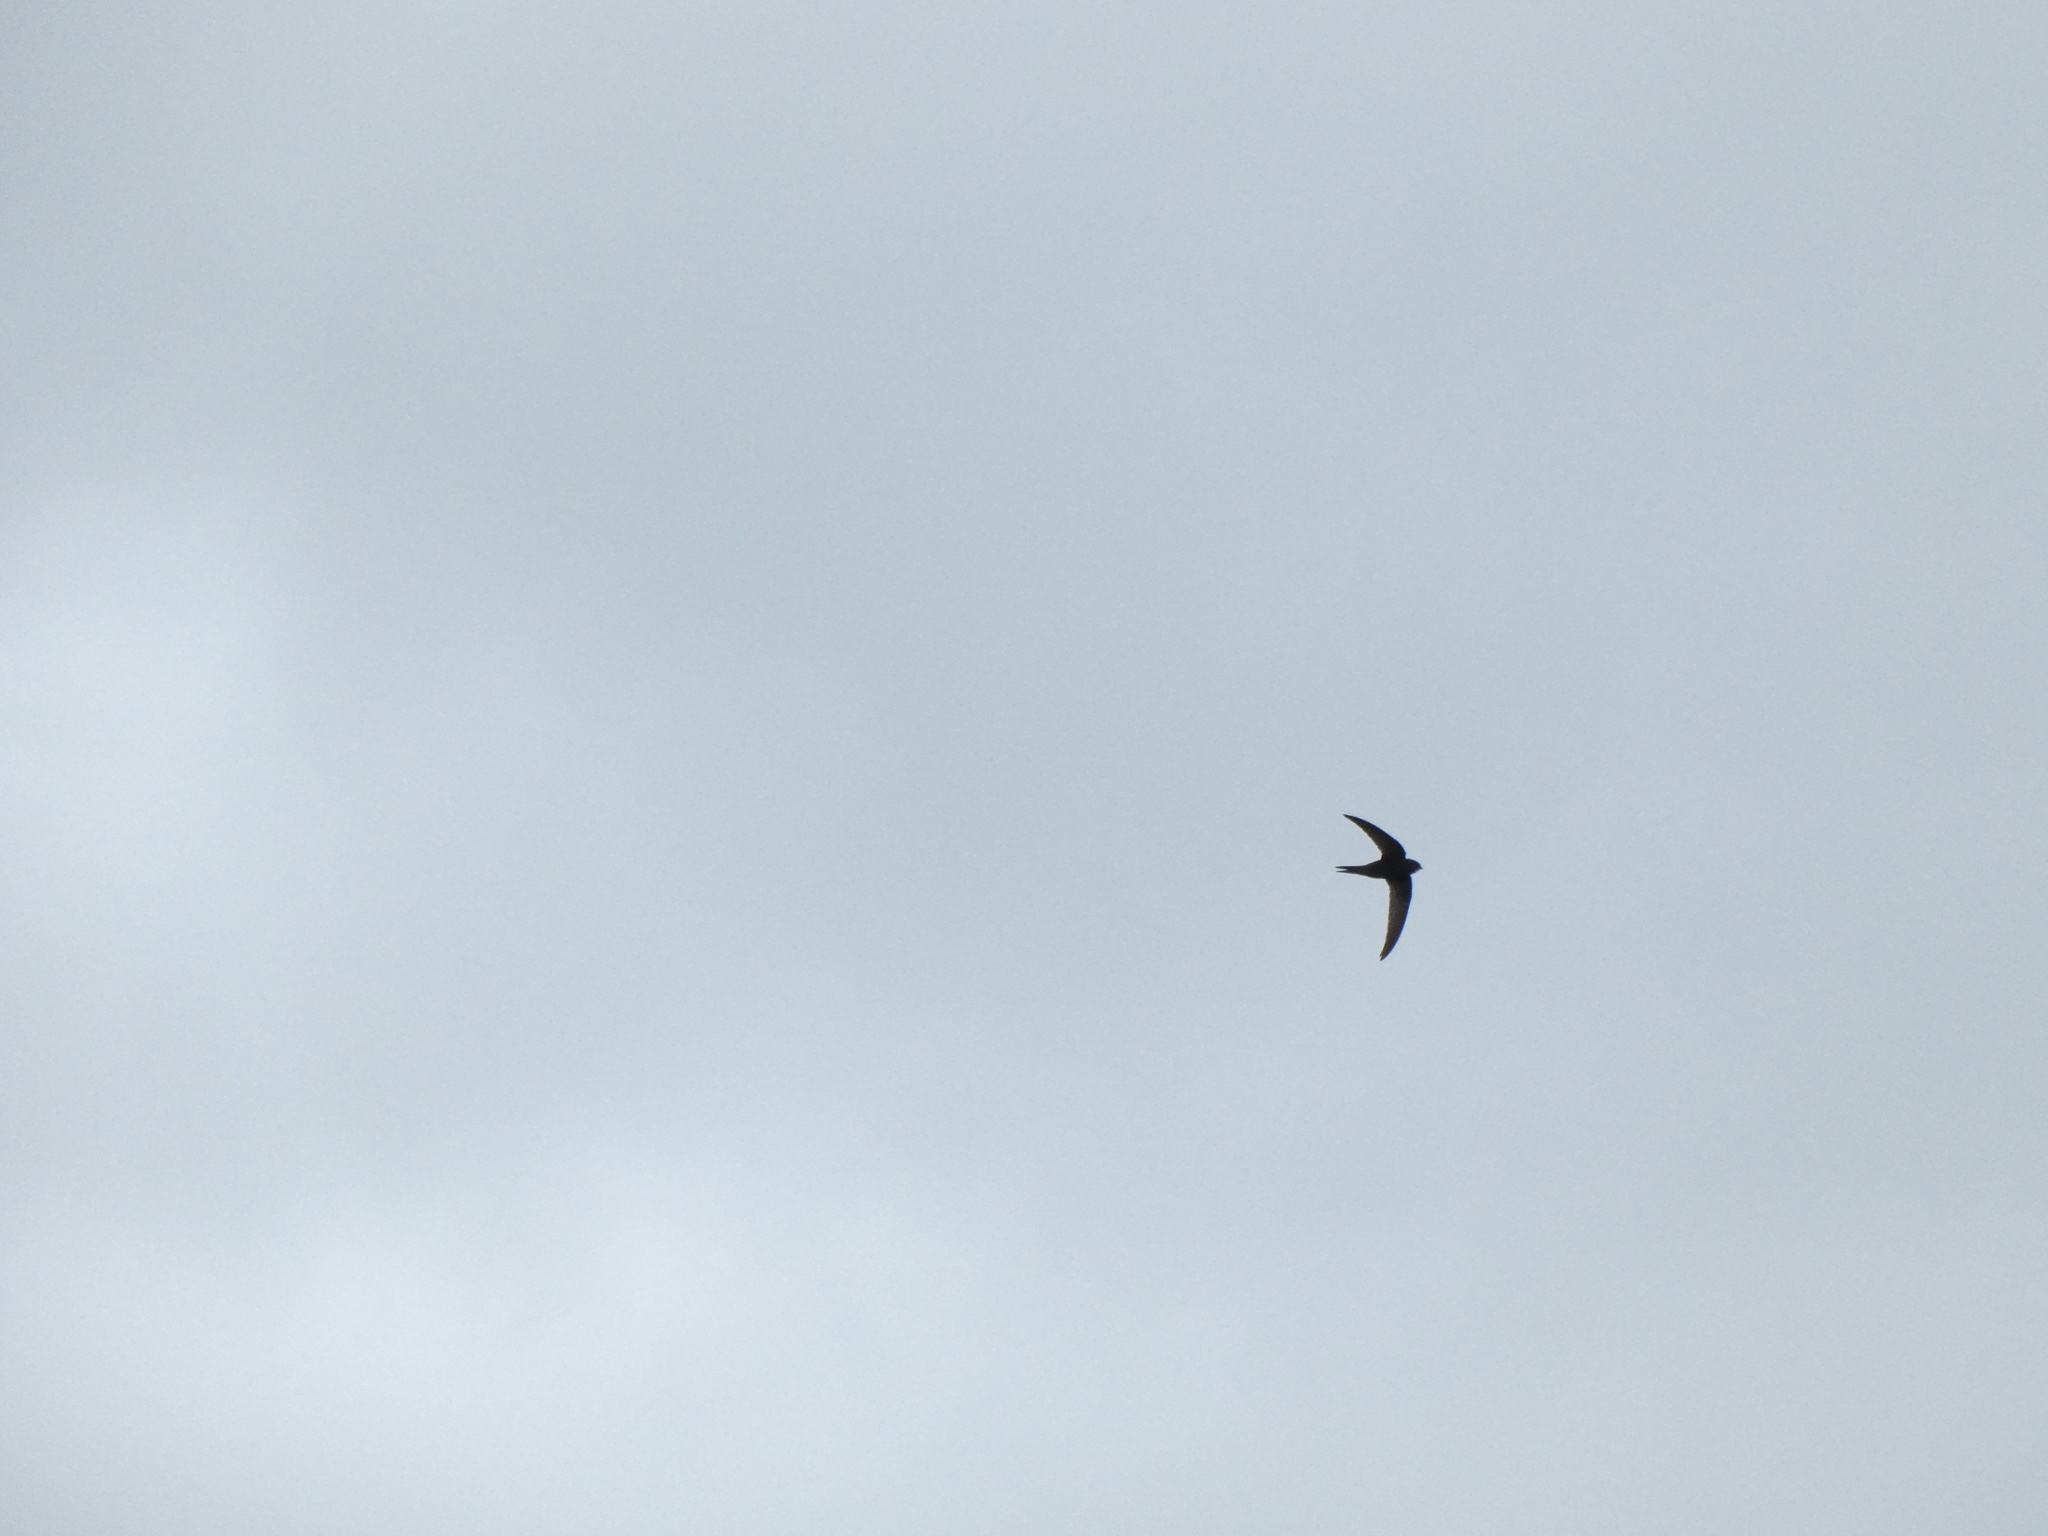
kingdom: Animalia
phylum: Chordata
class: Aves
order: Apodiformes
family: Apodidae
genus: Apus
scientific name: Apus apus
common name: Common swift
